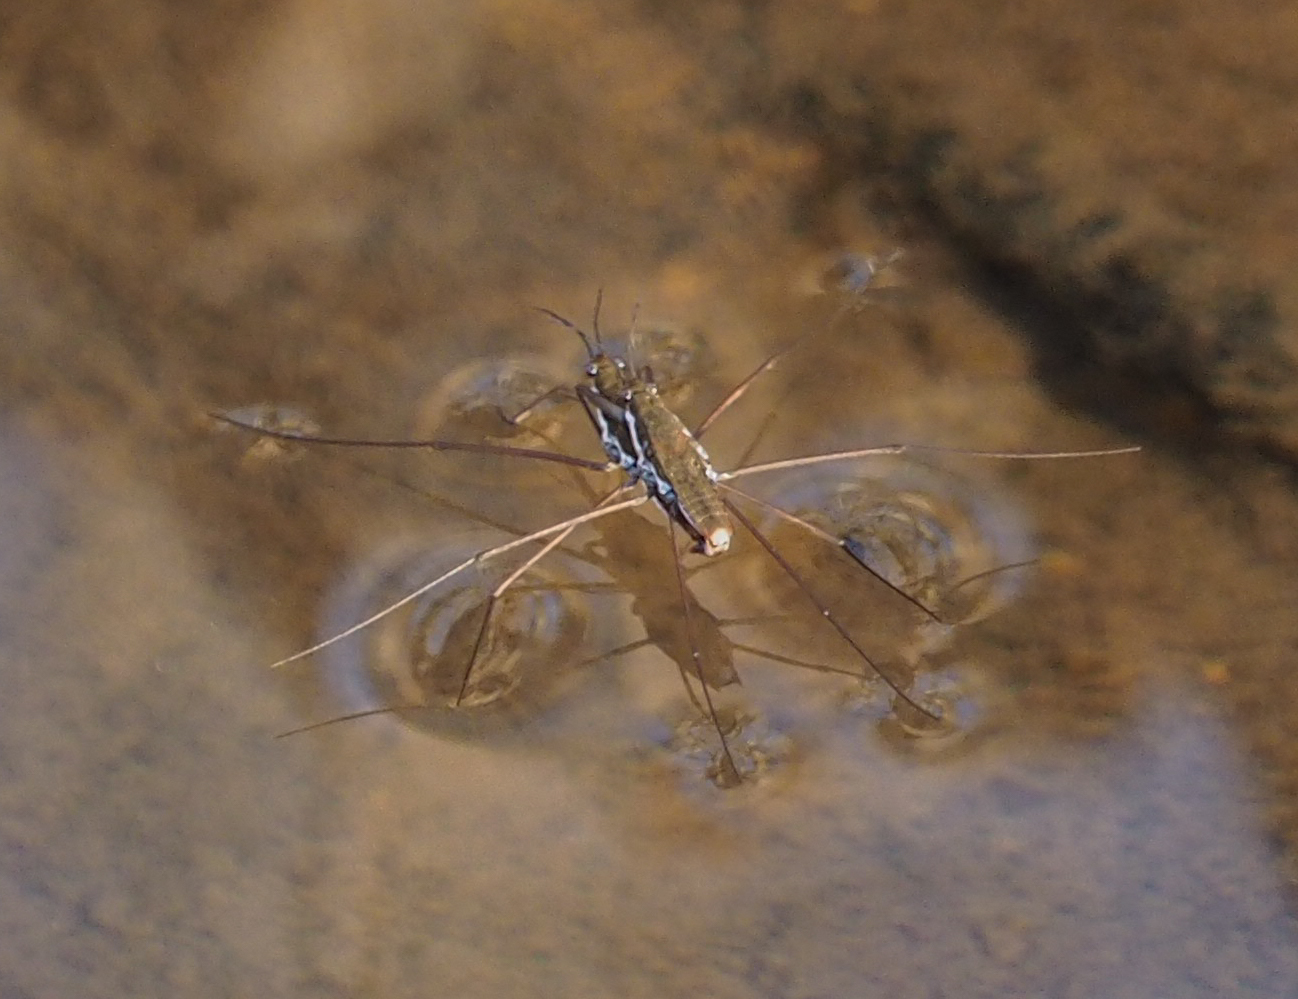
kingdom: Animalia
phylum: Arthropoda
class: Insecta
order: Hemiptera
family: Gerridae
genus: Aquarius
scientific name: Aquarius
